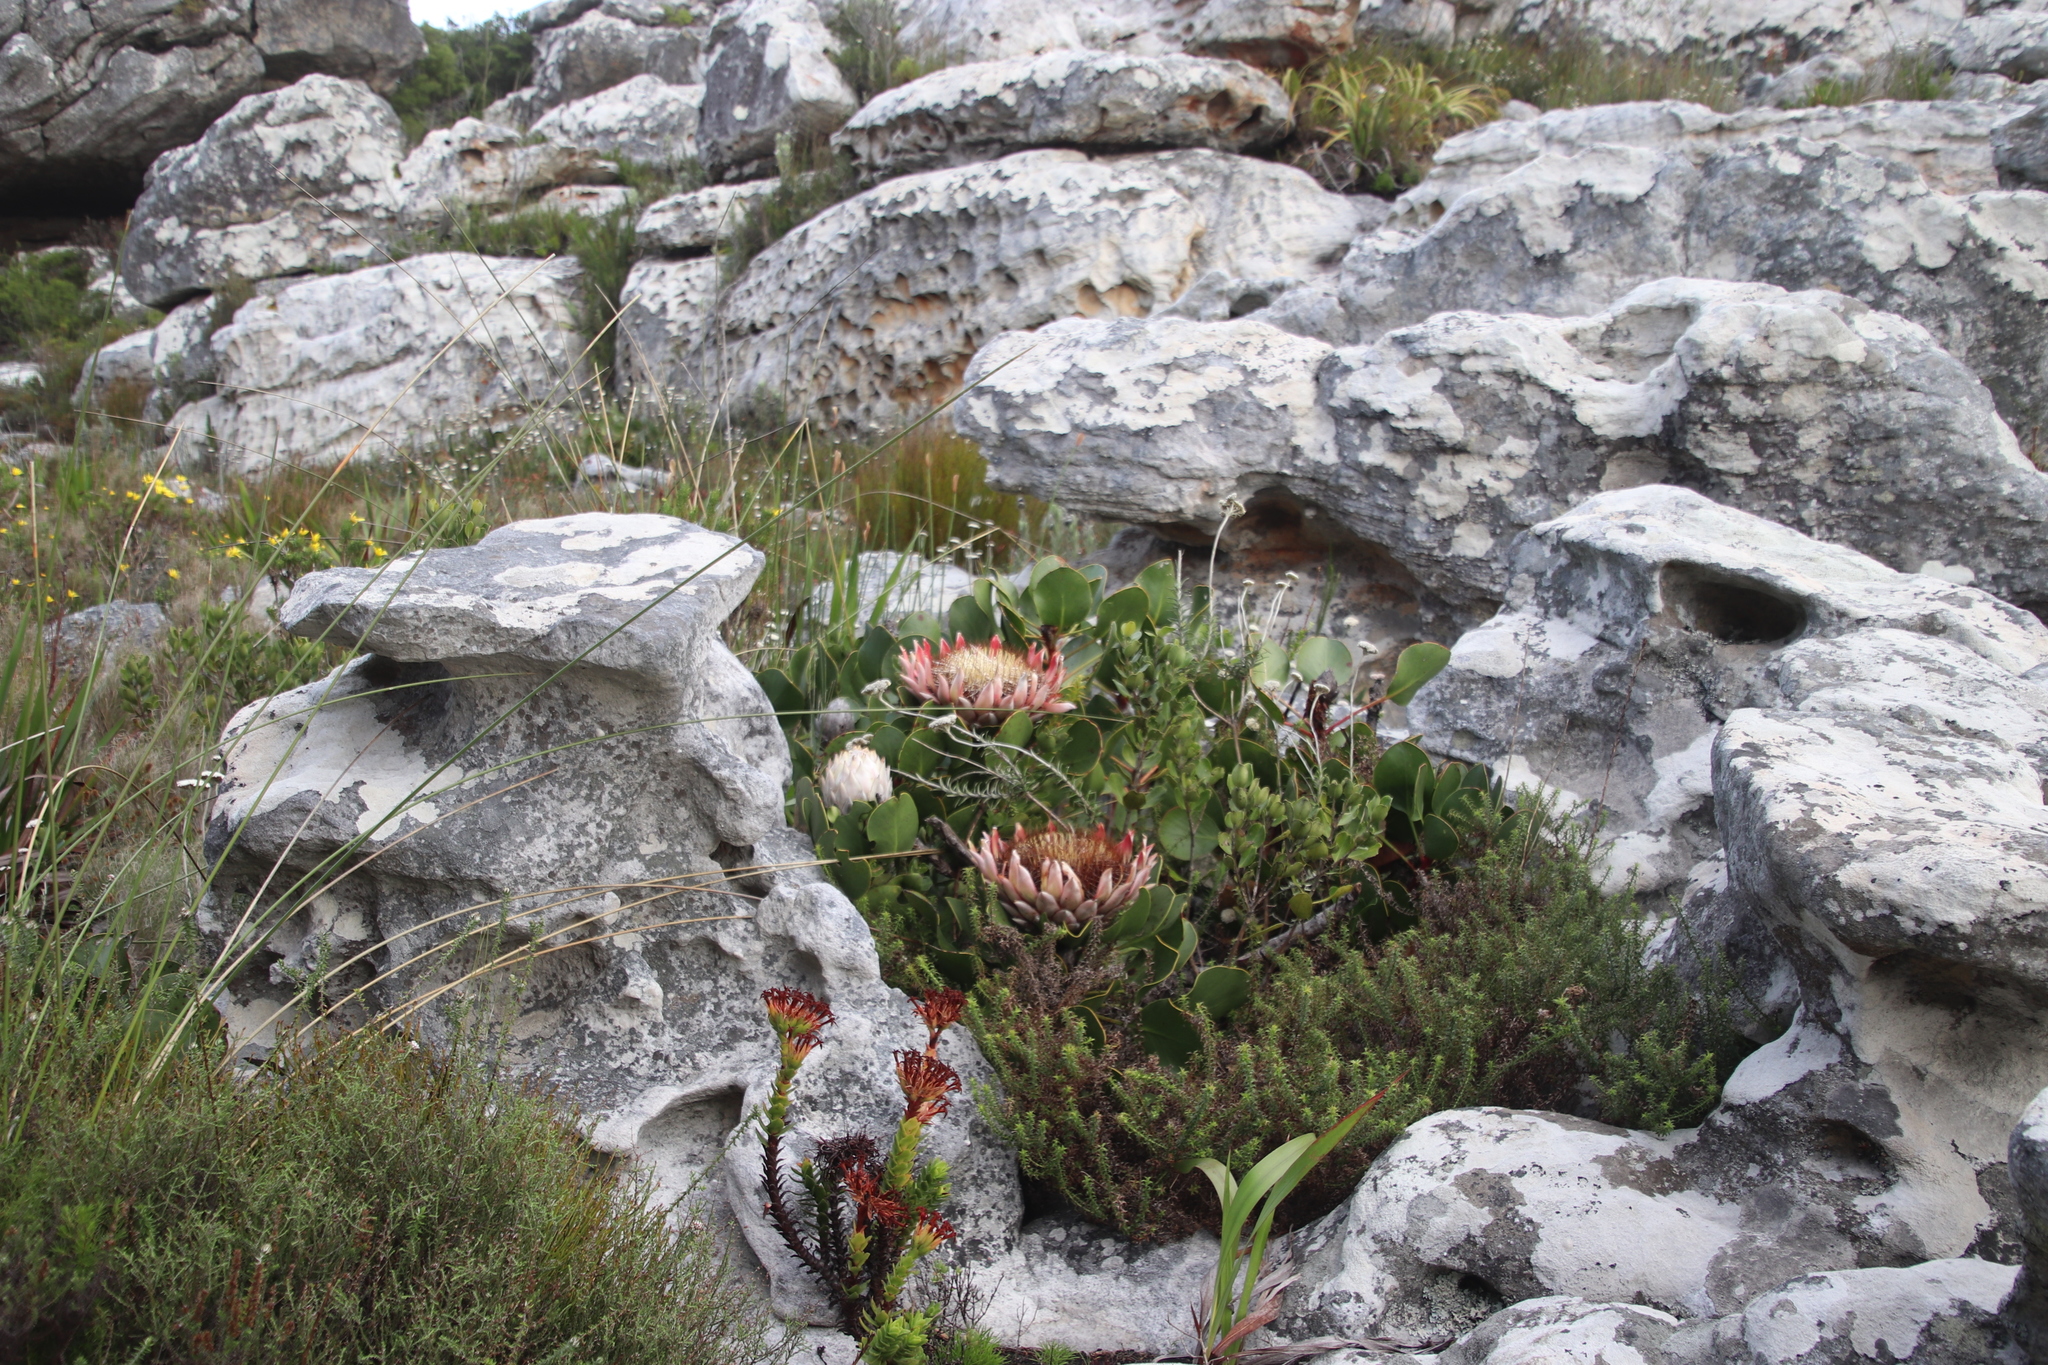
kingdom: Plantae
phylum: Tracheophyta
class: Magnoliopsida
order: Proteales
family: Proteaceae
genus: Protea
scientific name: Protea cynaroides
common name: King protea
